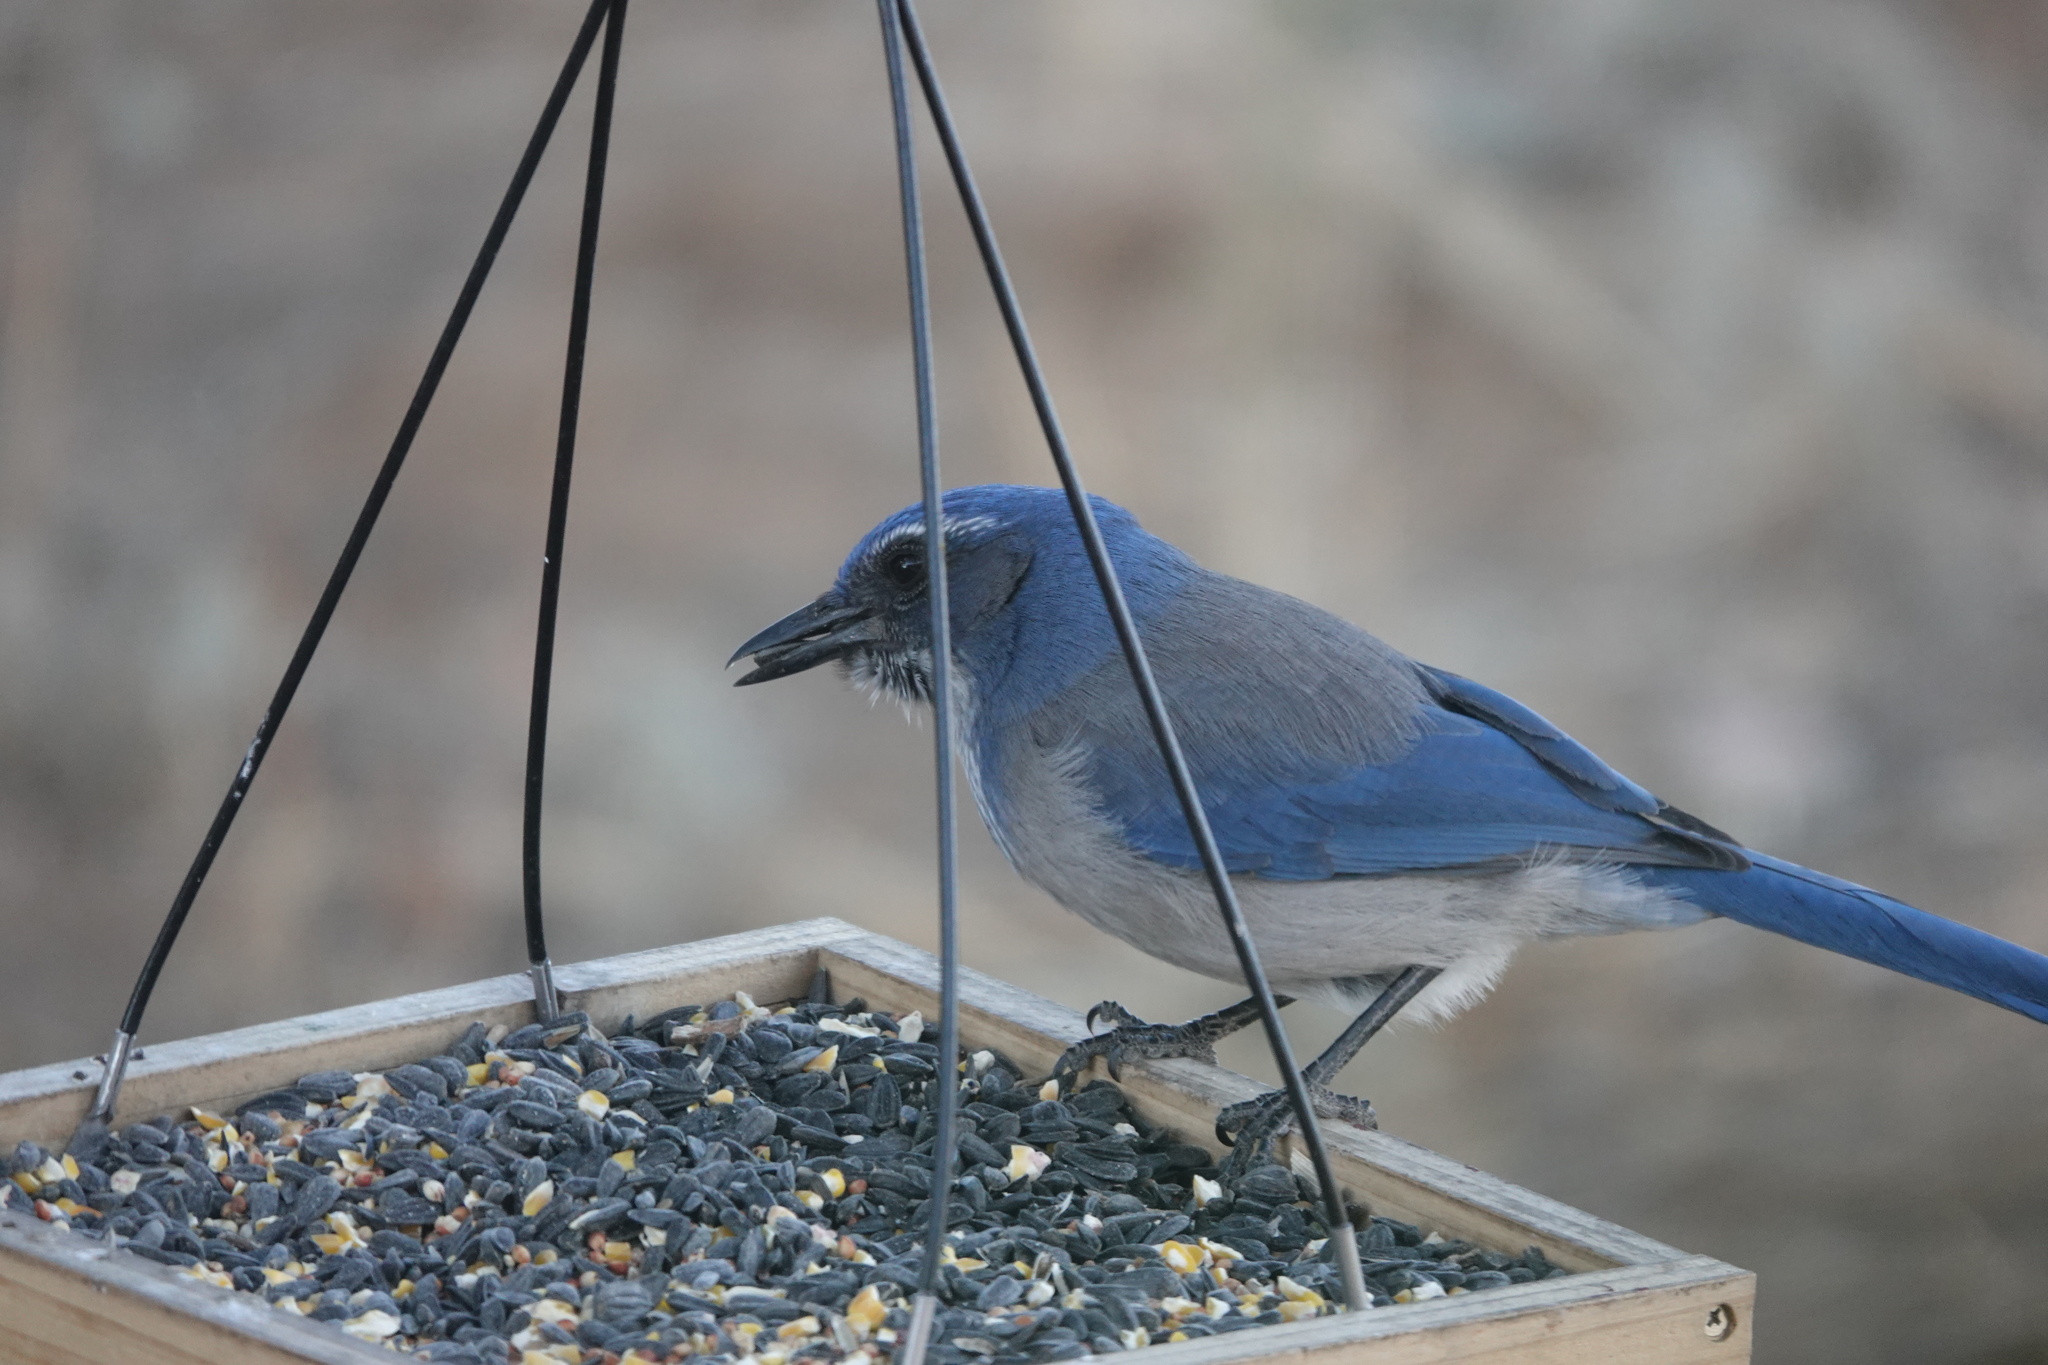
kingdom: Animalia
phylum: Chordata
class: Aves
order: Passeriformes
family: Corvidae
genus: Aphelocoma
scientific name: Aphelocoma woodhouseii
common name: Woodhouse's scrub-jay
